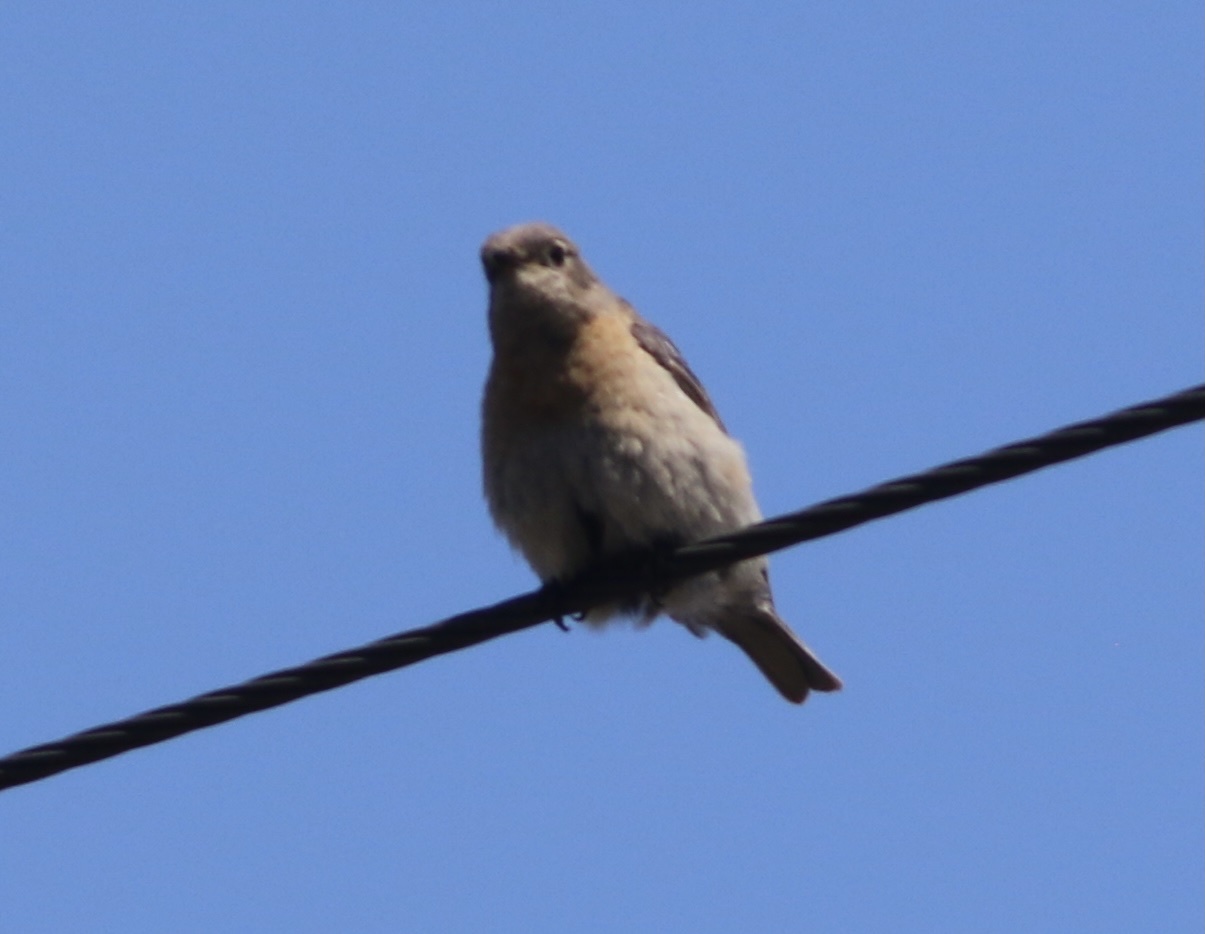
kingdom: Animalia
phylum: Chordata
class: Aves
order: Passeriformes
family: Turdidae
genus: Sialia
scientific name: Sialia mexicana
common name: Western bluebird
